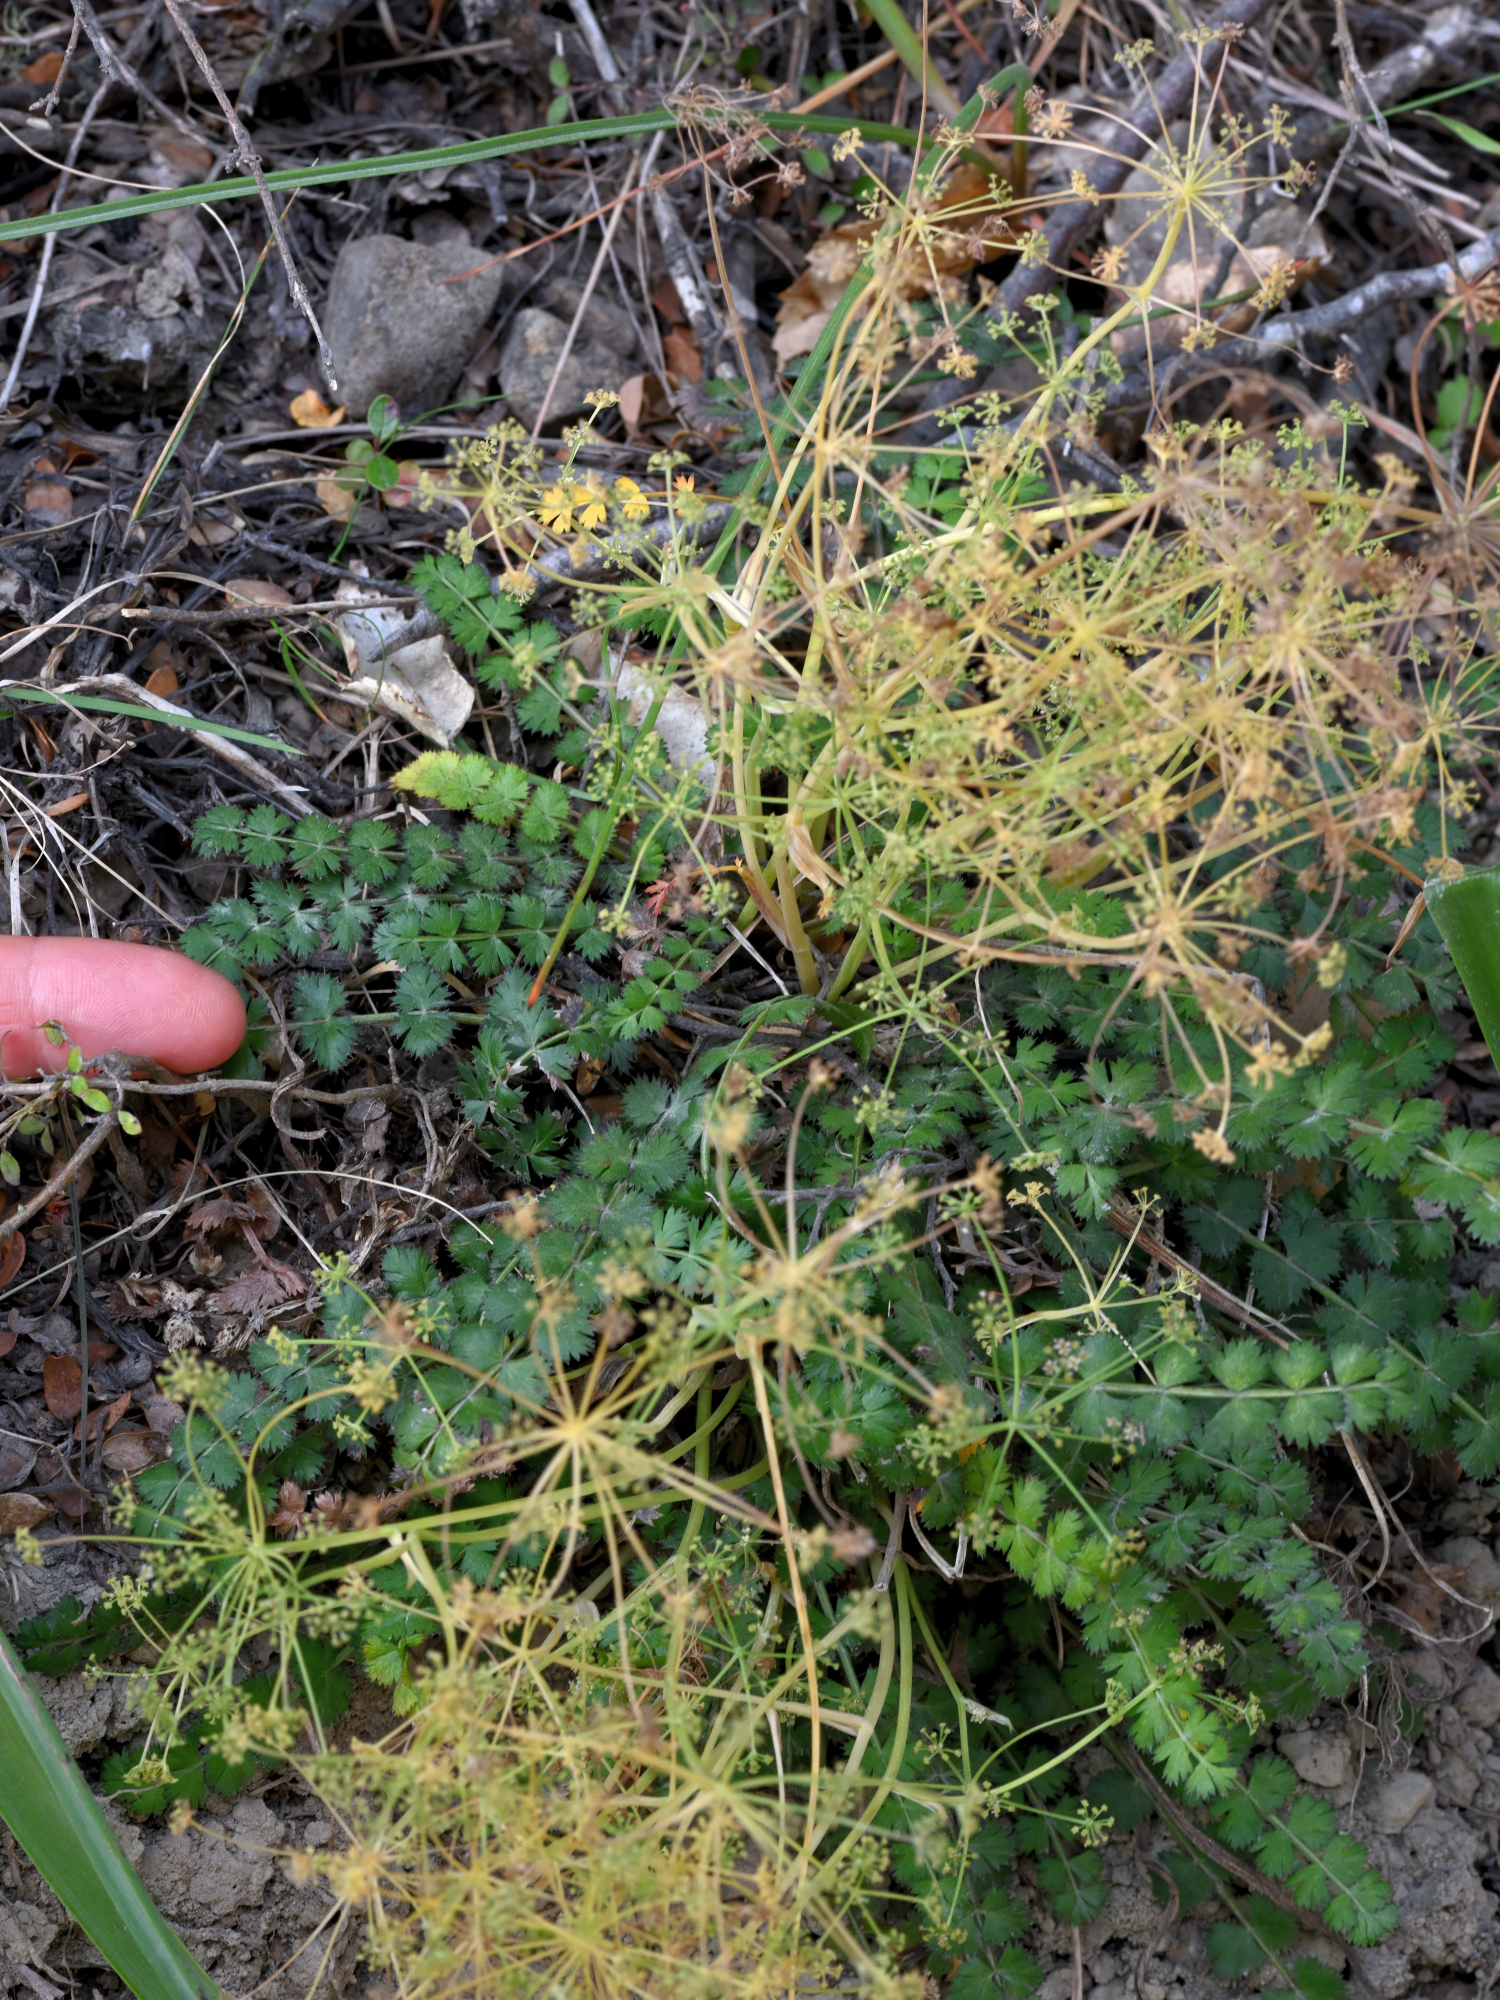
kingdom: Plantae
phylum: Tracheophyta
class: Magnoliopsida
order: Apiales
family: Apiaceae
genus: Anisotome
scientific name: Anisotome aromatica
